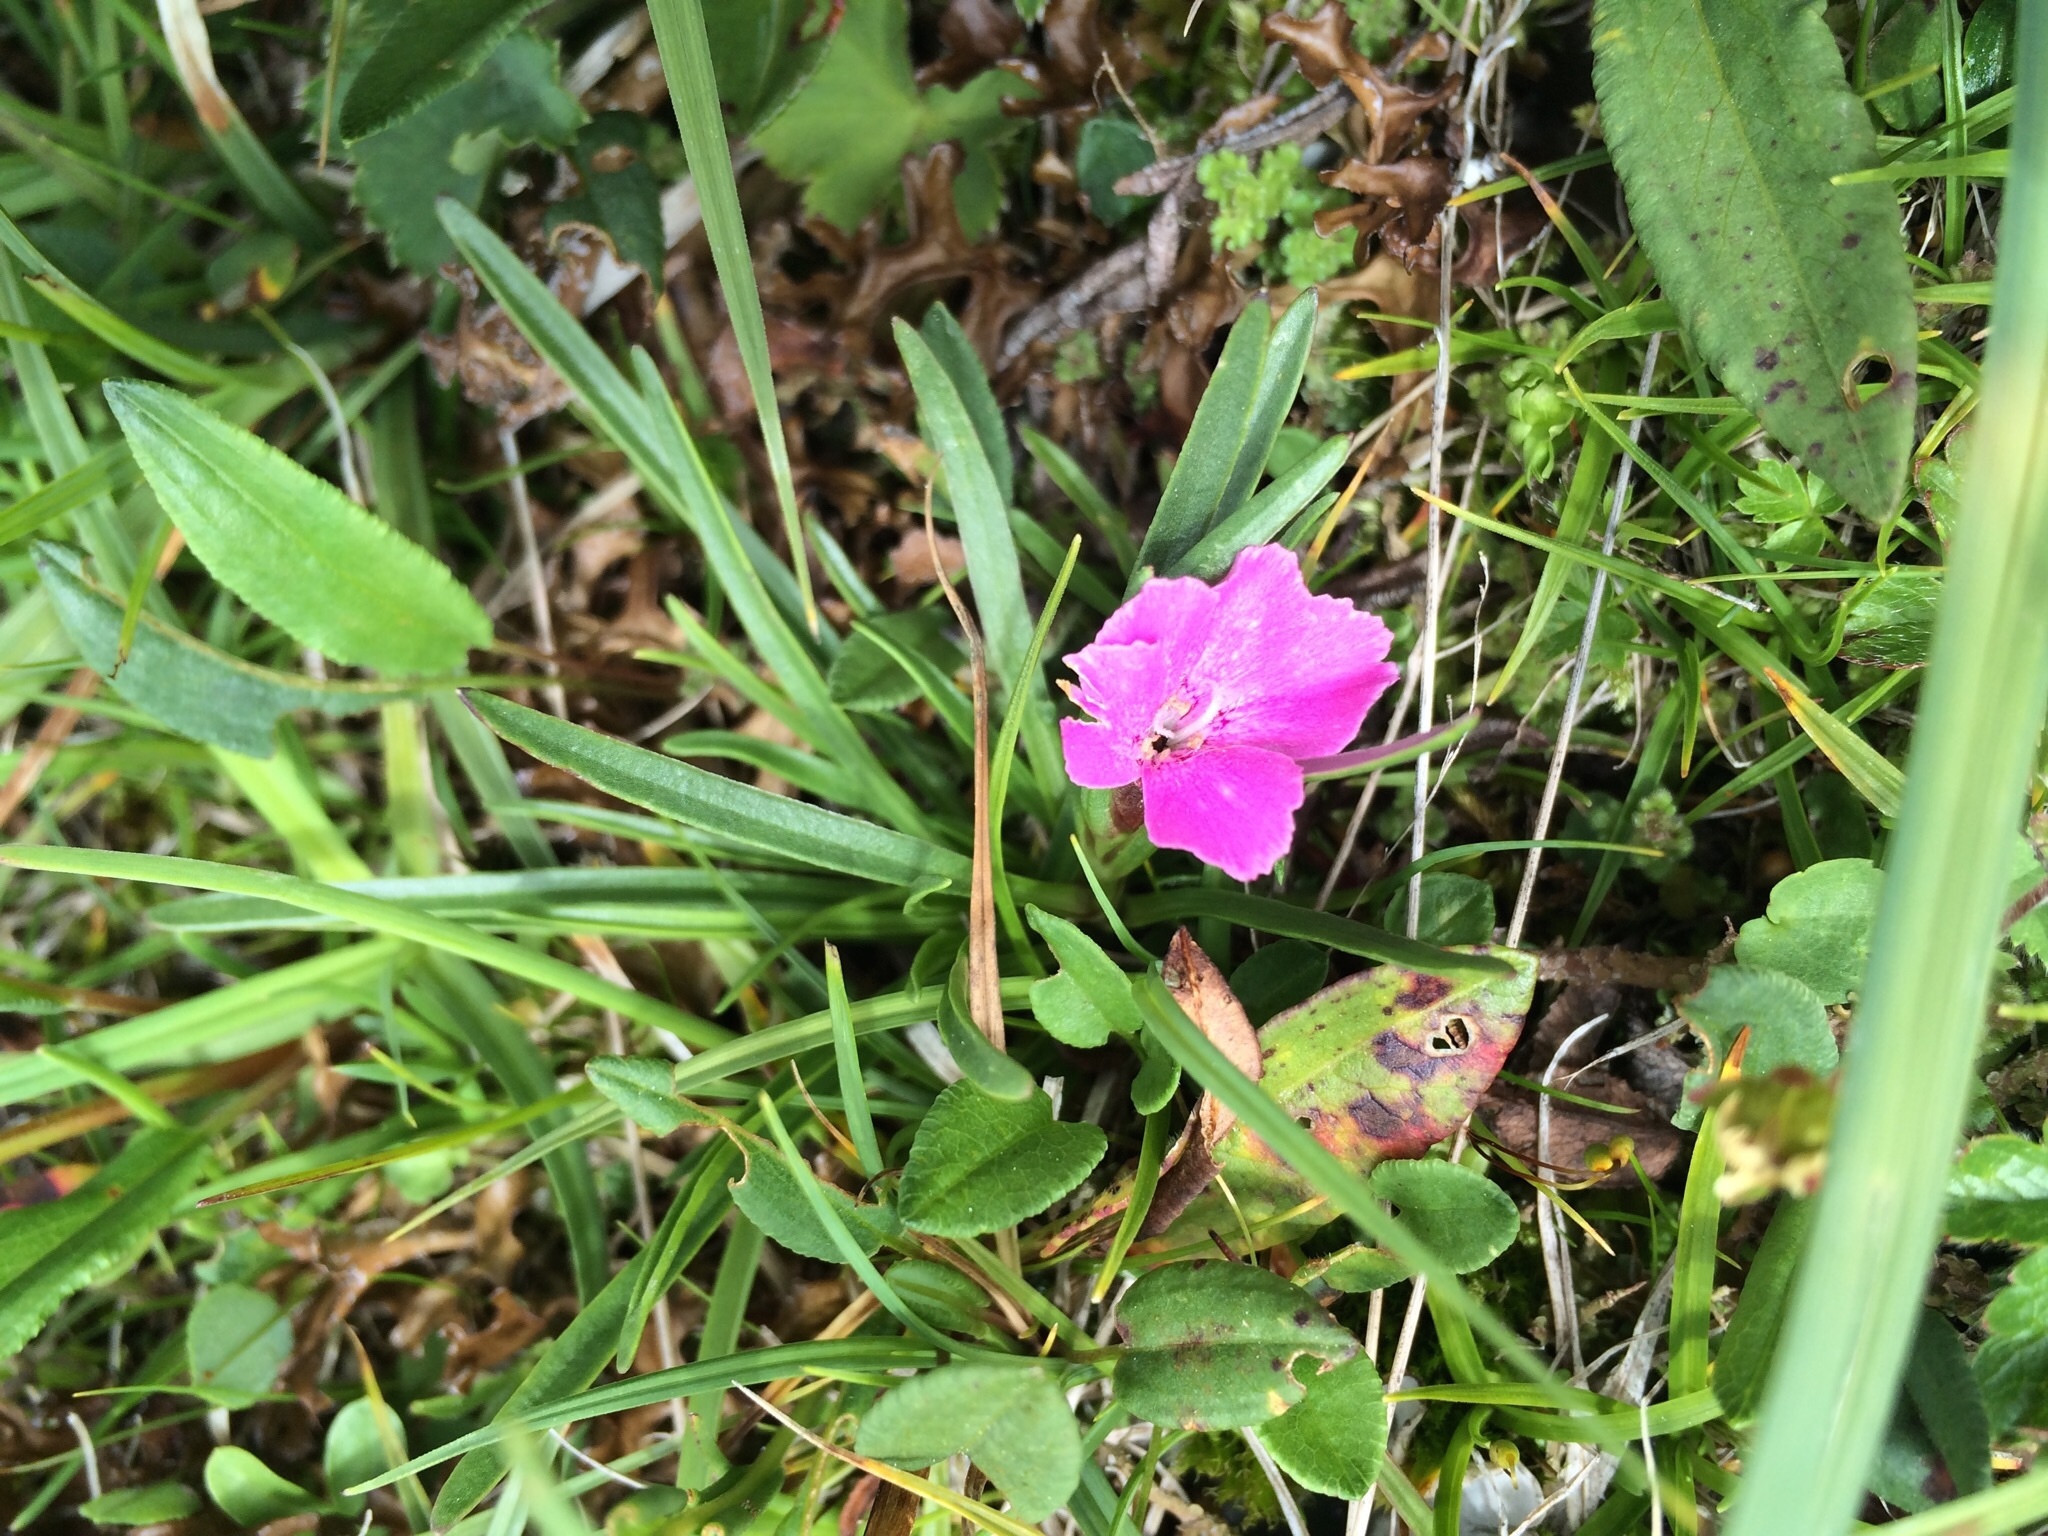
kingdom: Plantae
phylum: Tracheophyta
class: Magnoliopsida
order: Caryophyllales
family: Caryophyllaceae
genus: Dianthus
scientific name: Dianthus glacialis
